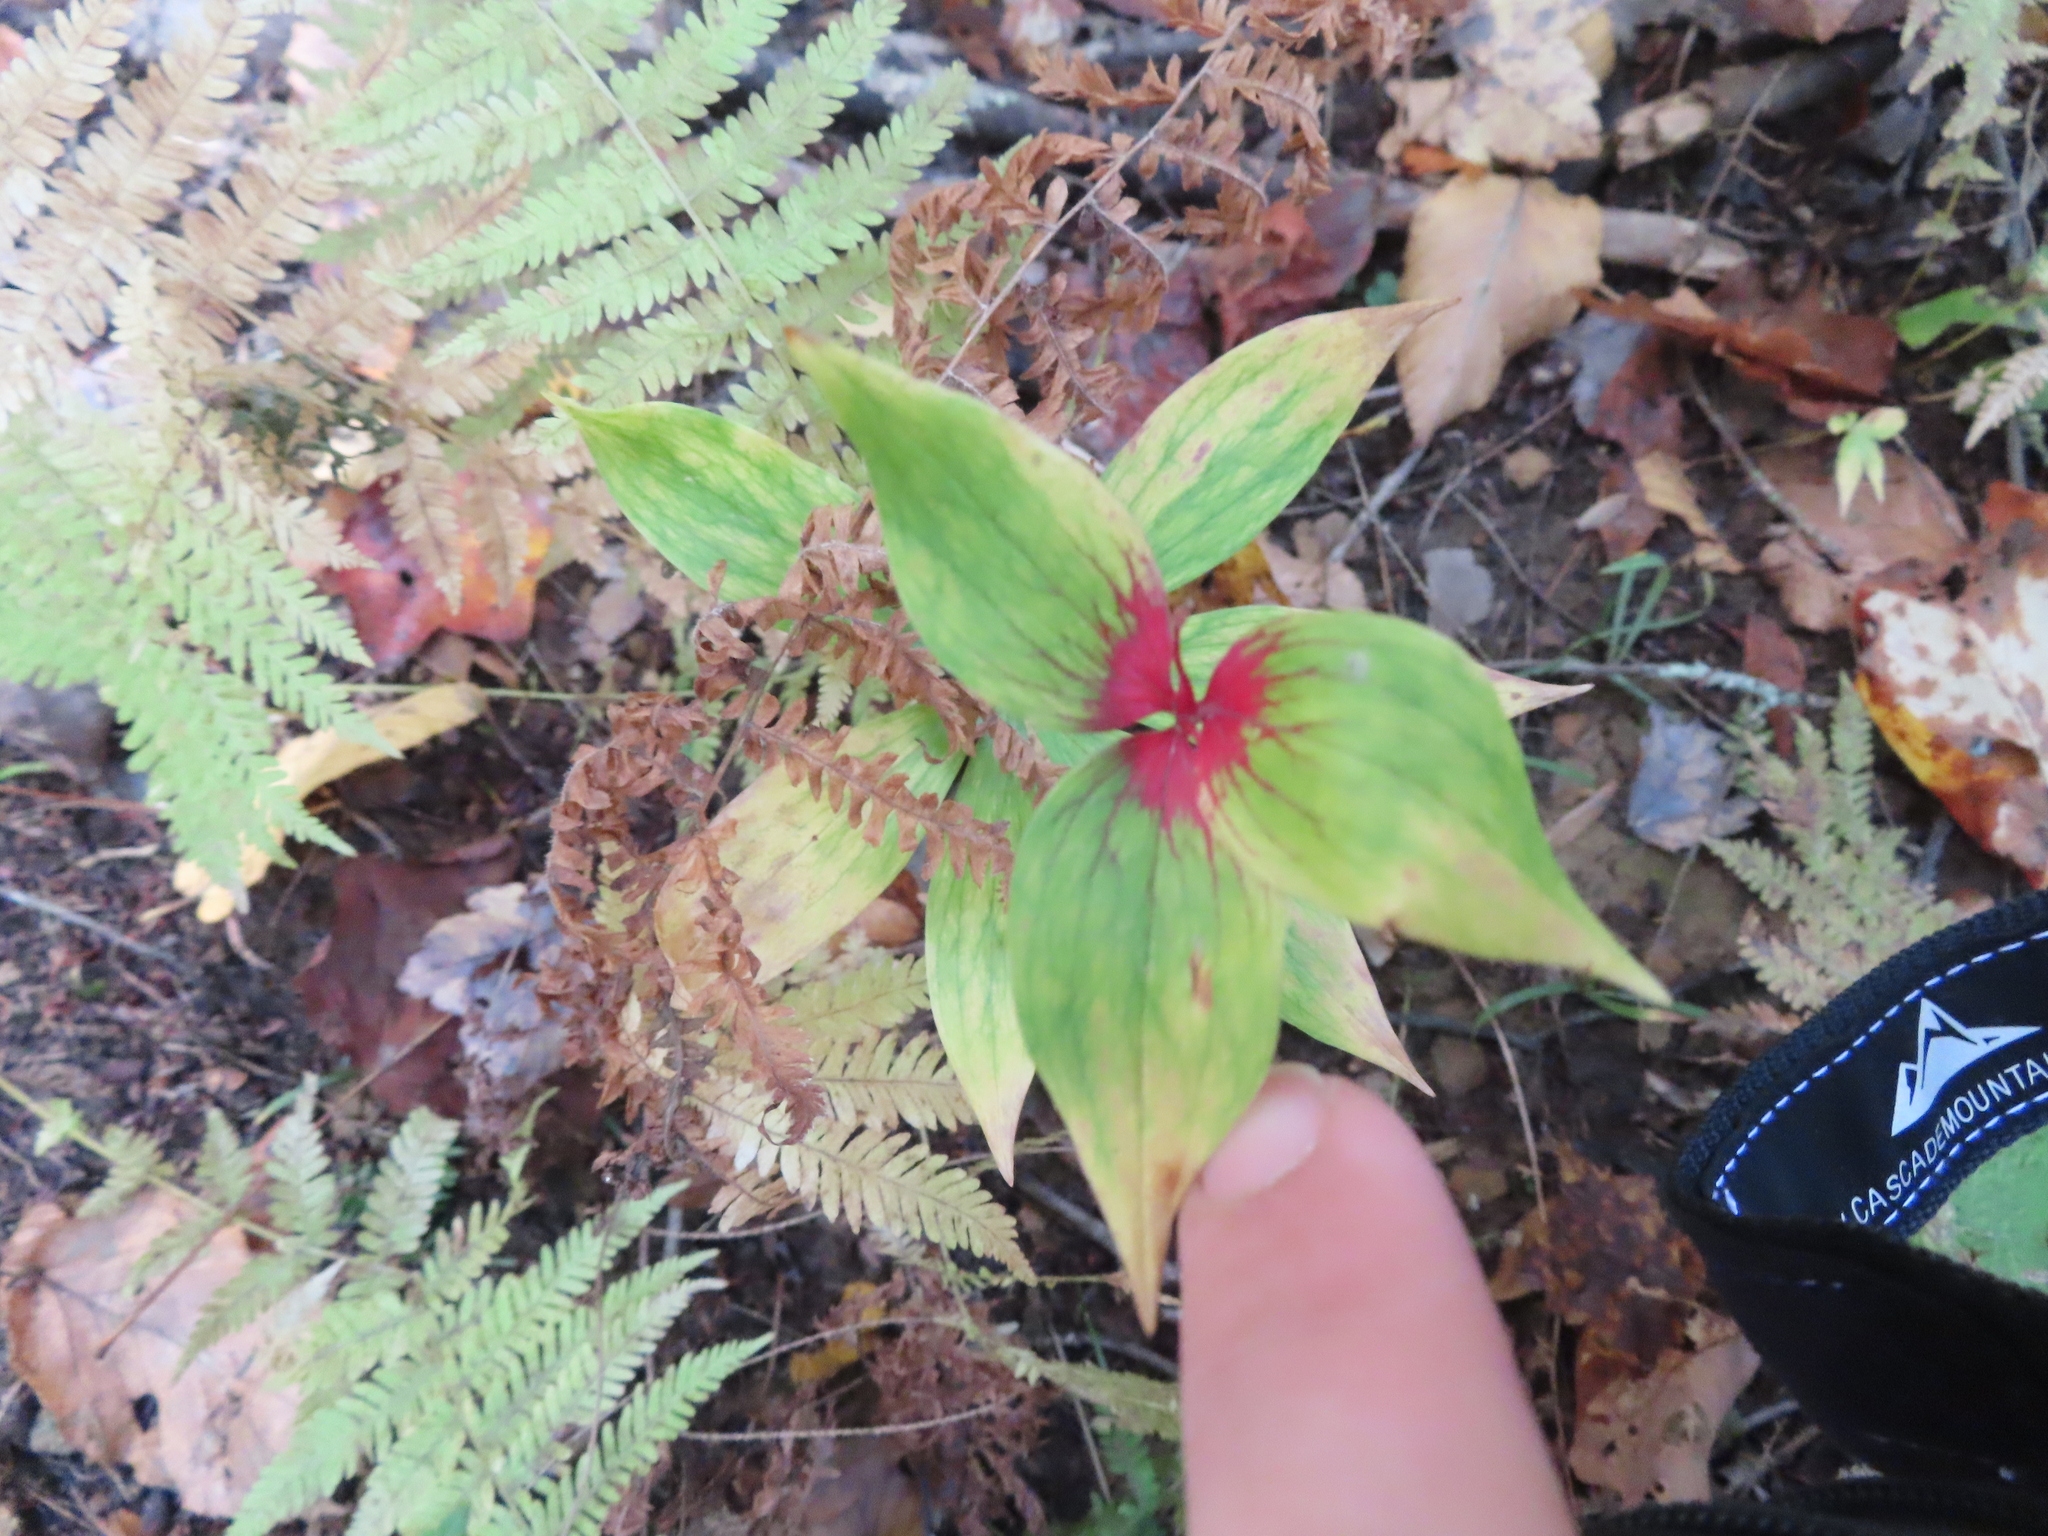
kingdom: Plantae
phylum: Tracheophyta
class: Liliopsida
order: Liliales
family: Liliaceae
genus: Medeola
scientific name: Medeola virginiana
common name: Indian cucumber-root
